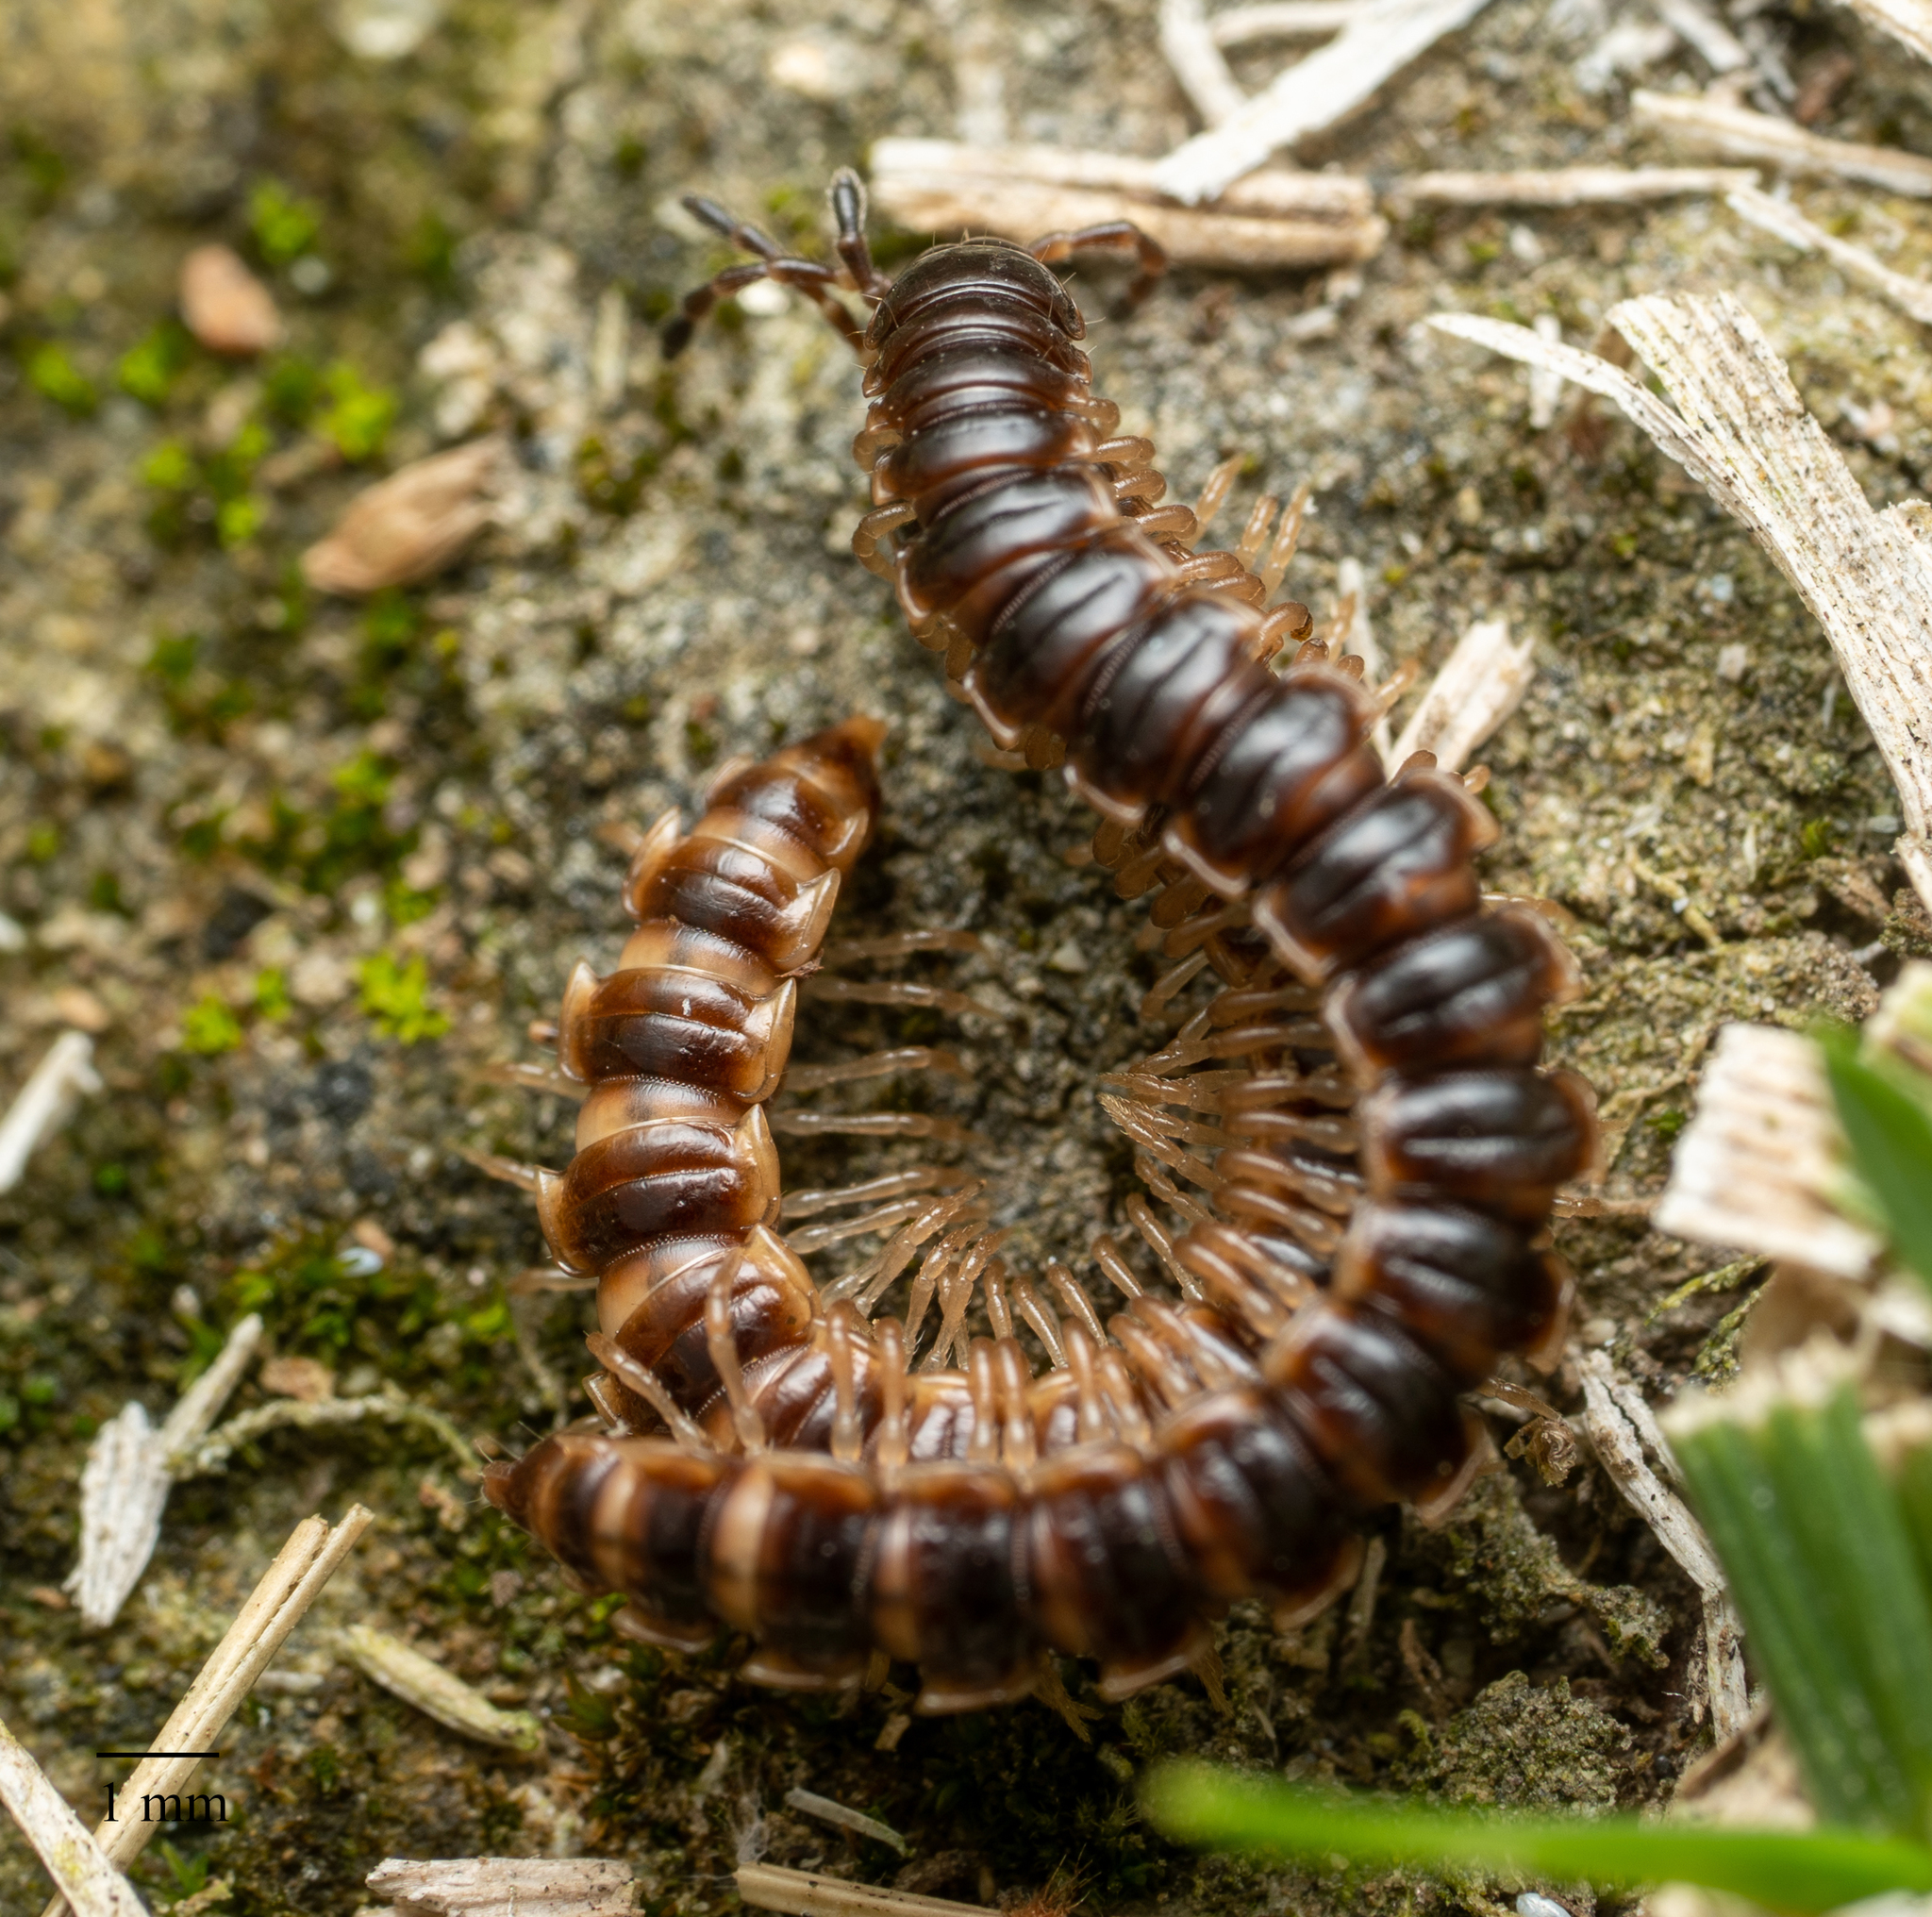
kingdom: Animalia
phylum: Arthropoda
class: Diplopoda
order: Polydesmida
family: Paradoxosomatidae
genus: Oxidus
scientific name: Oxidus gracilis
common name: Greenhouse millipede
